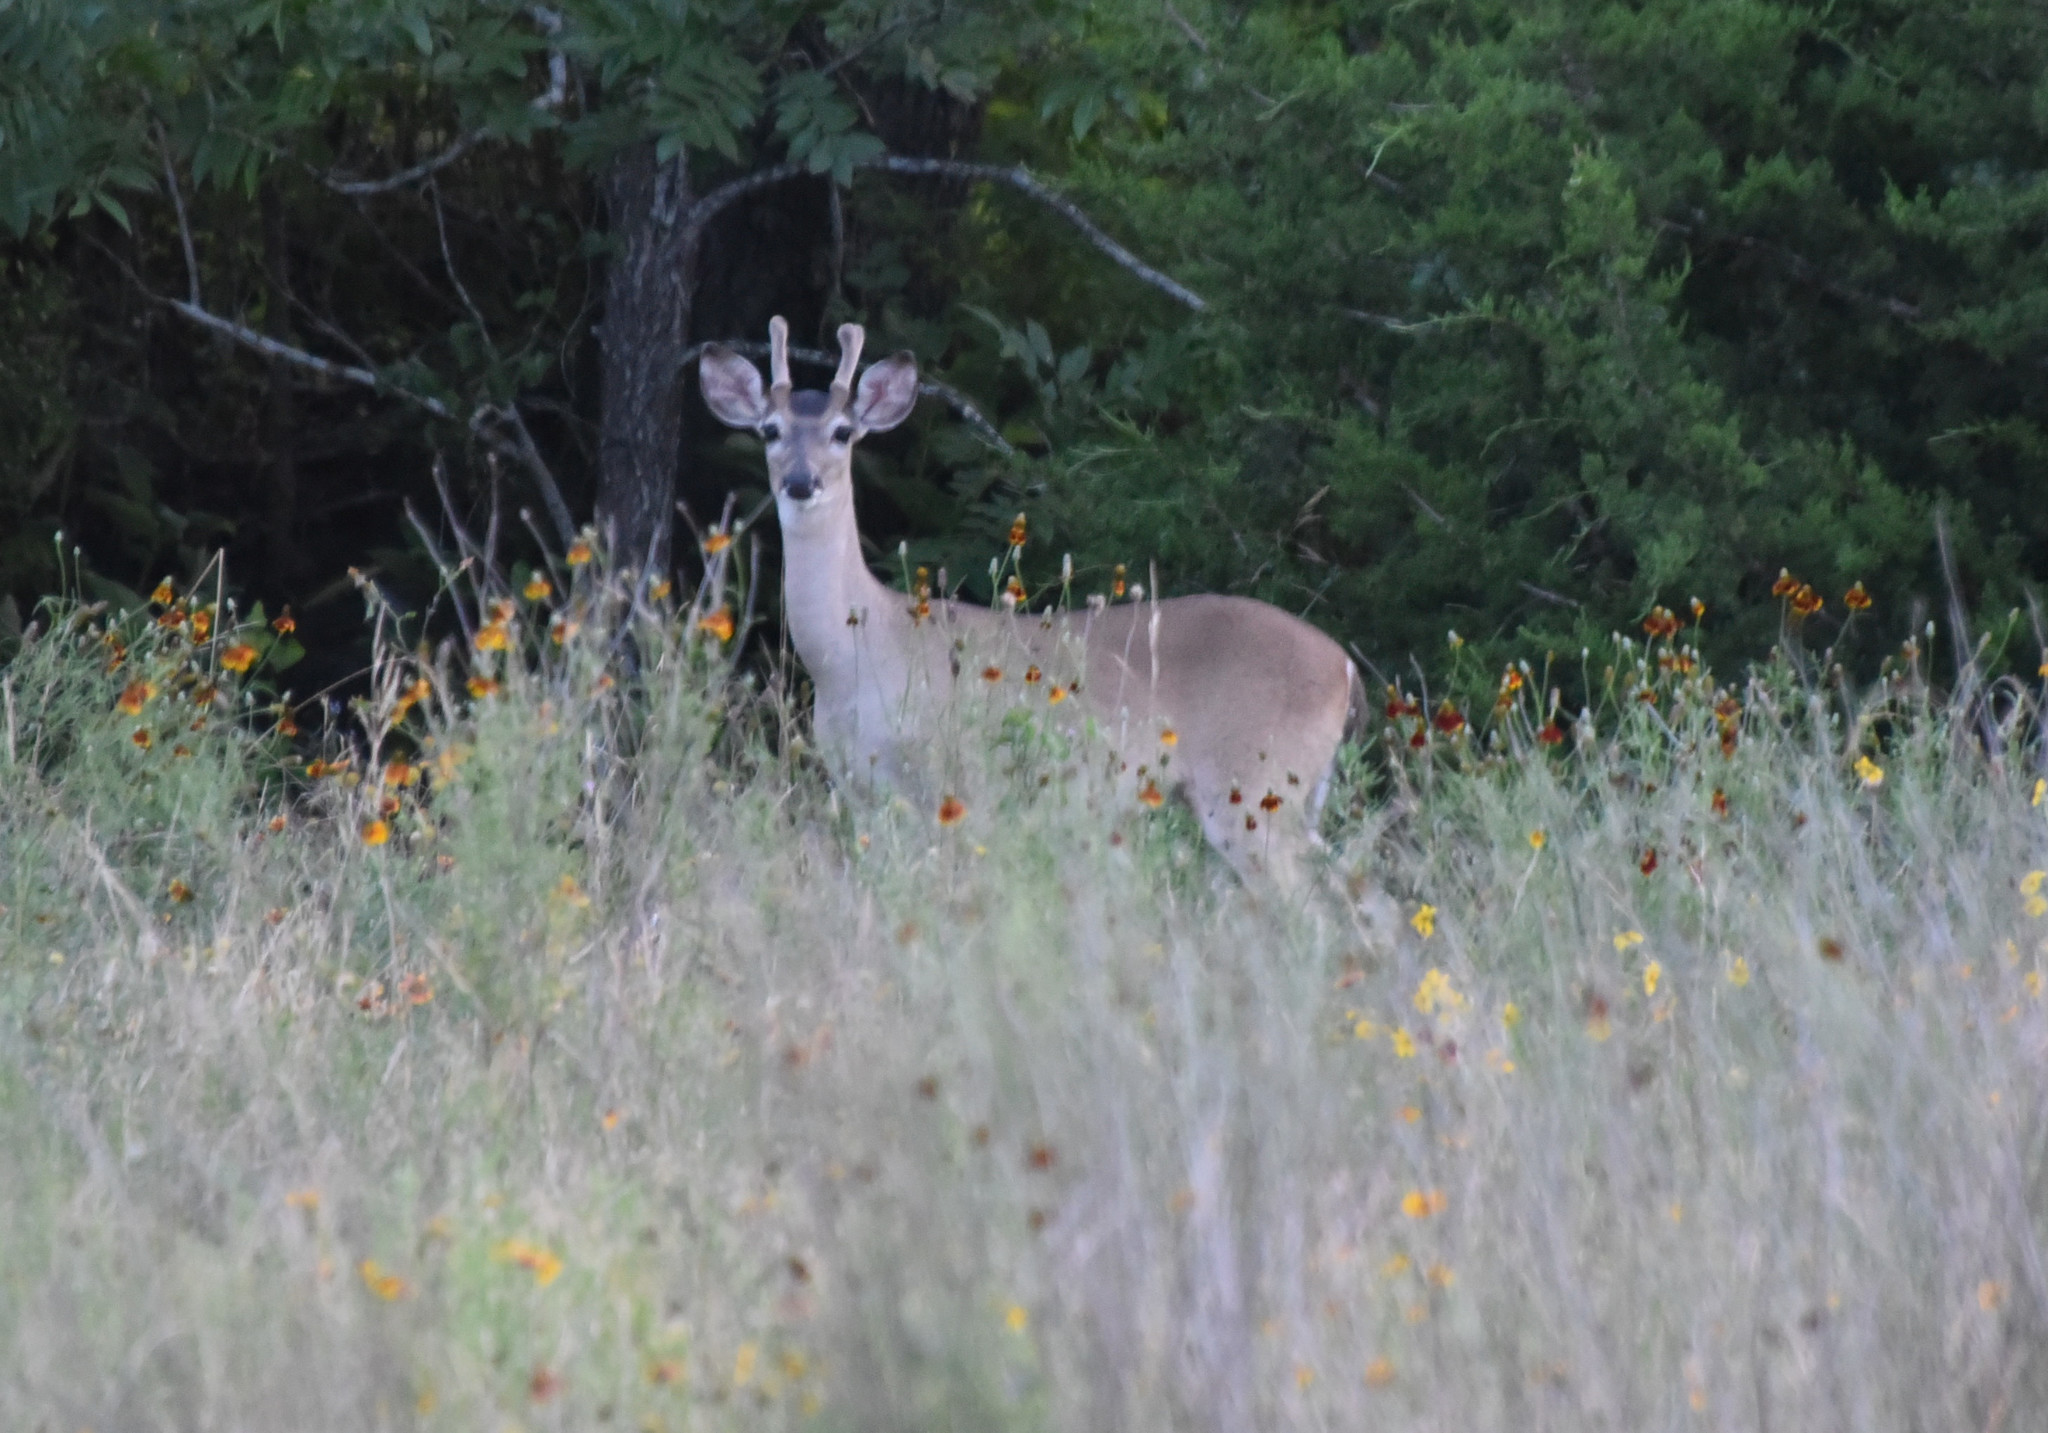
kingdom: Animalia
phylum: Chordata
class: Mammalia
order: Artiodactyla
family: Cervidae
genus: Odocoileus
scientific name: Odocoileus virginianus
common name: White-tailed deer
